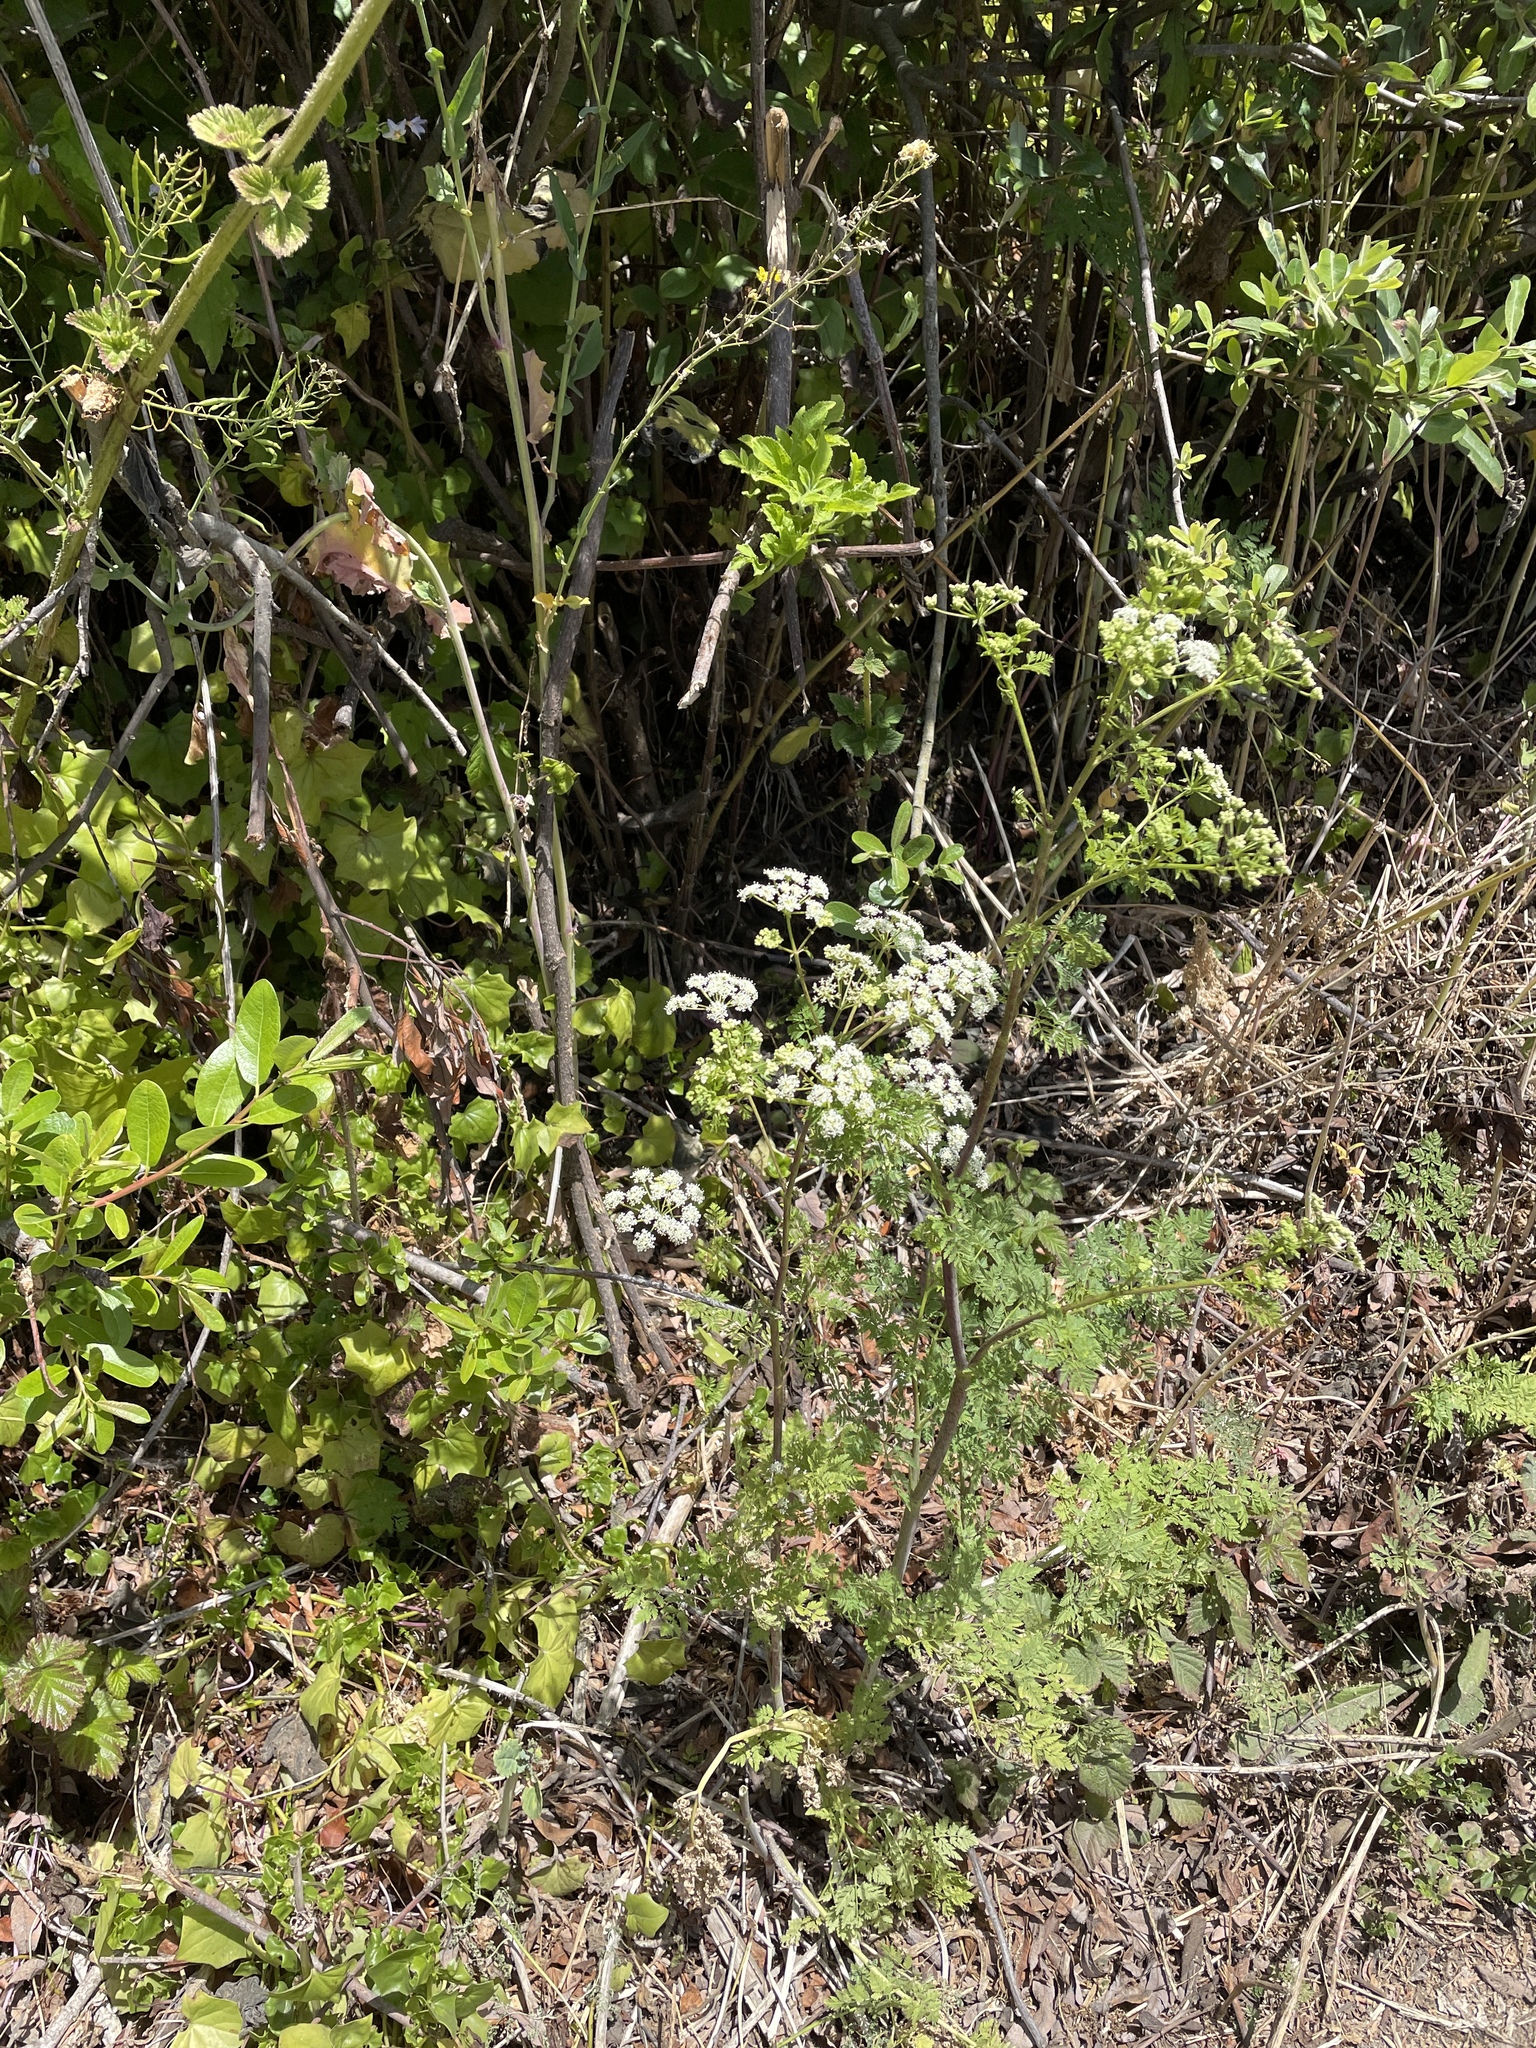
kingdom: Plantae
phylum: Tracheophyta
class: Magnoliopsida
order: Apiales
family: Apiaceae
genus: Conium
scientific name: Conium maculatum
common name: Hemlock
